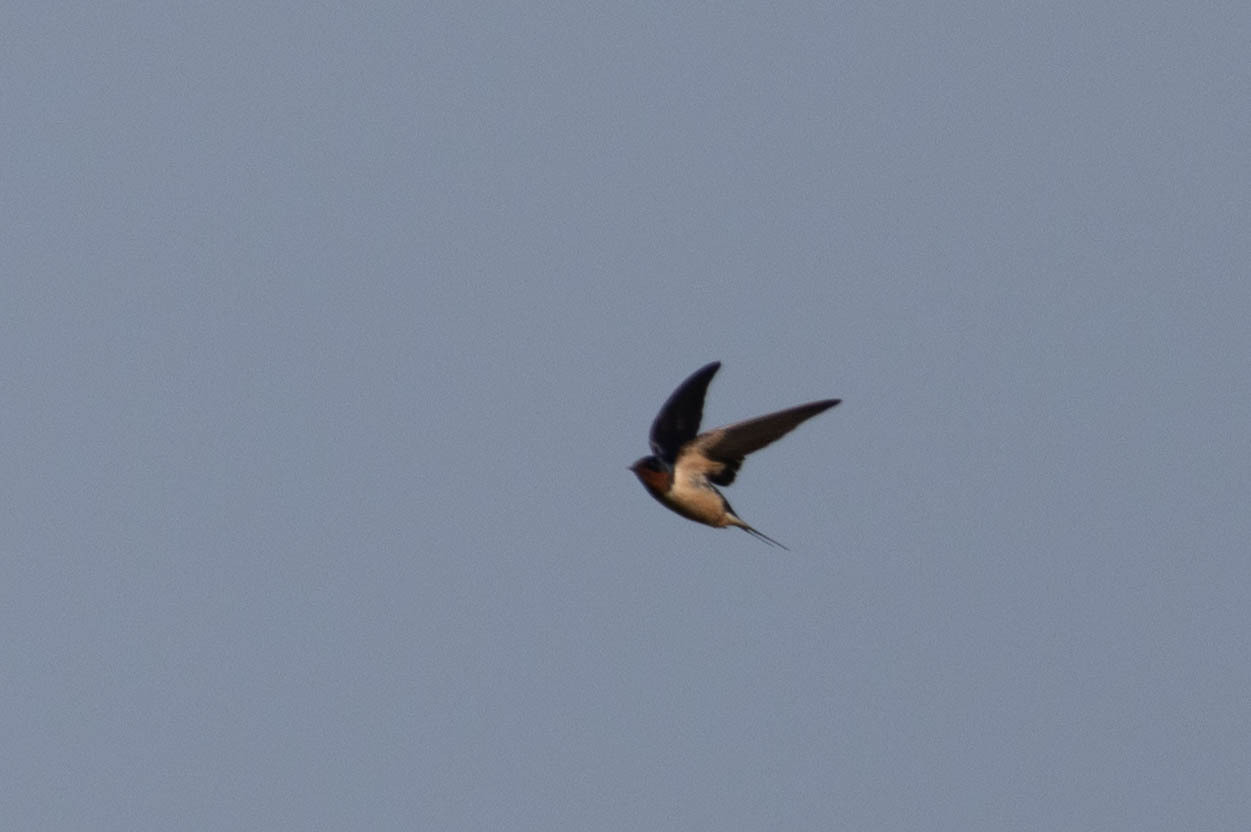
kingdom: Animalia
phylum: Chordata
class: Aves
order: Passeriformes
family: Hirundinidae
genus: Hirundo
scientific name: Hirundo rustica
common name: Barn swallow
